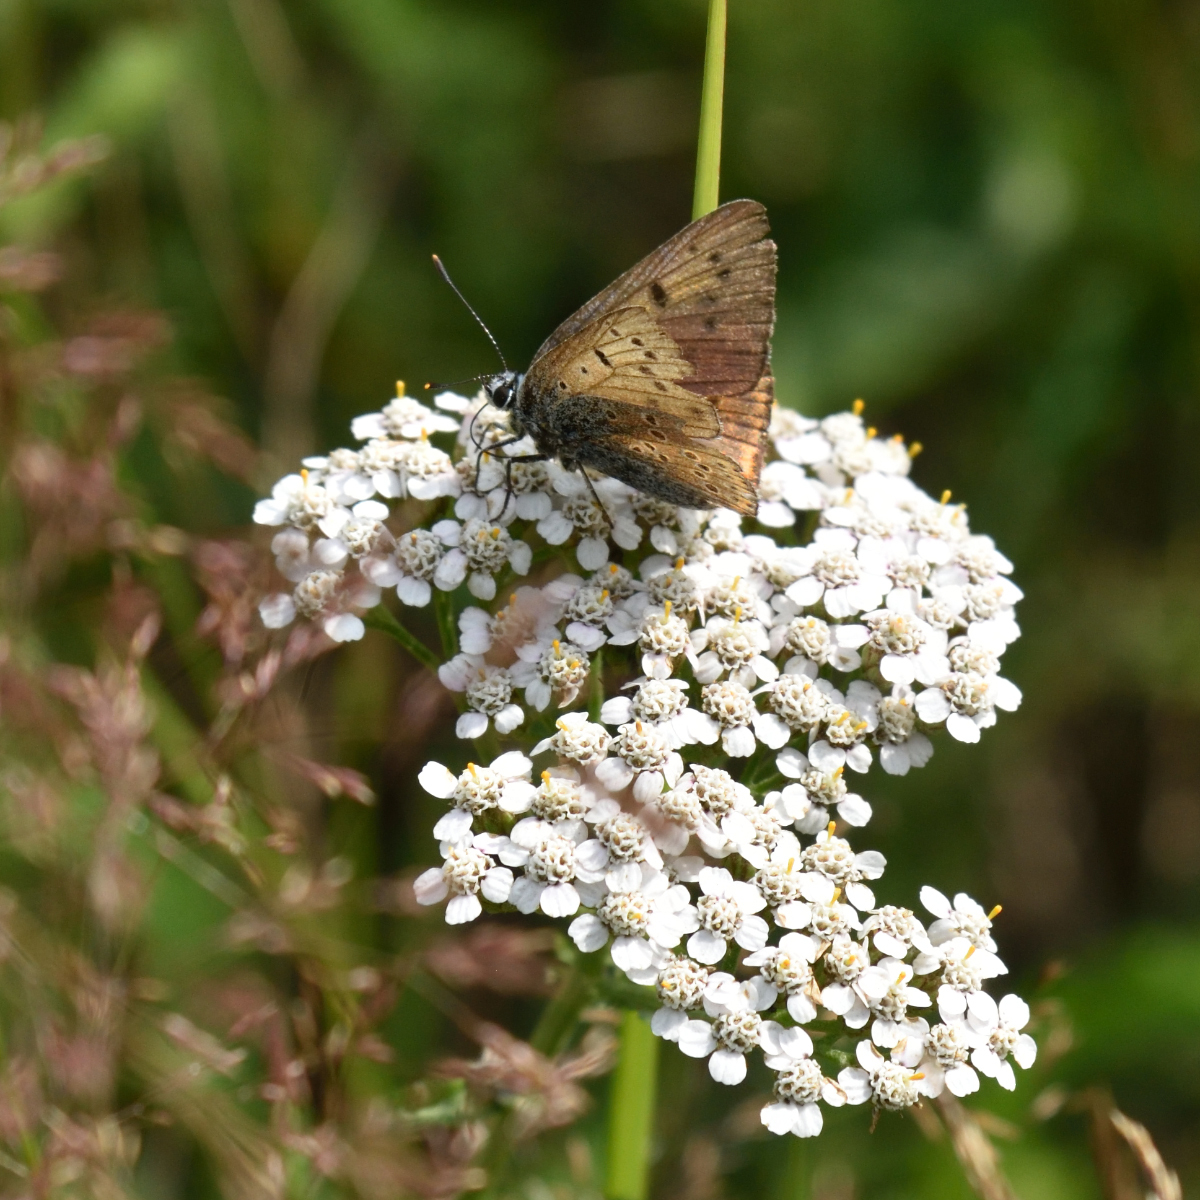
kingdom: Animalia
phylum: Arthropoda
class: Insecta
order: Lepidoptera
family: Lycaenidae
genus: Lycaena
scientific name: Lycaena alciphron
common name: Purple-shot copper
